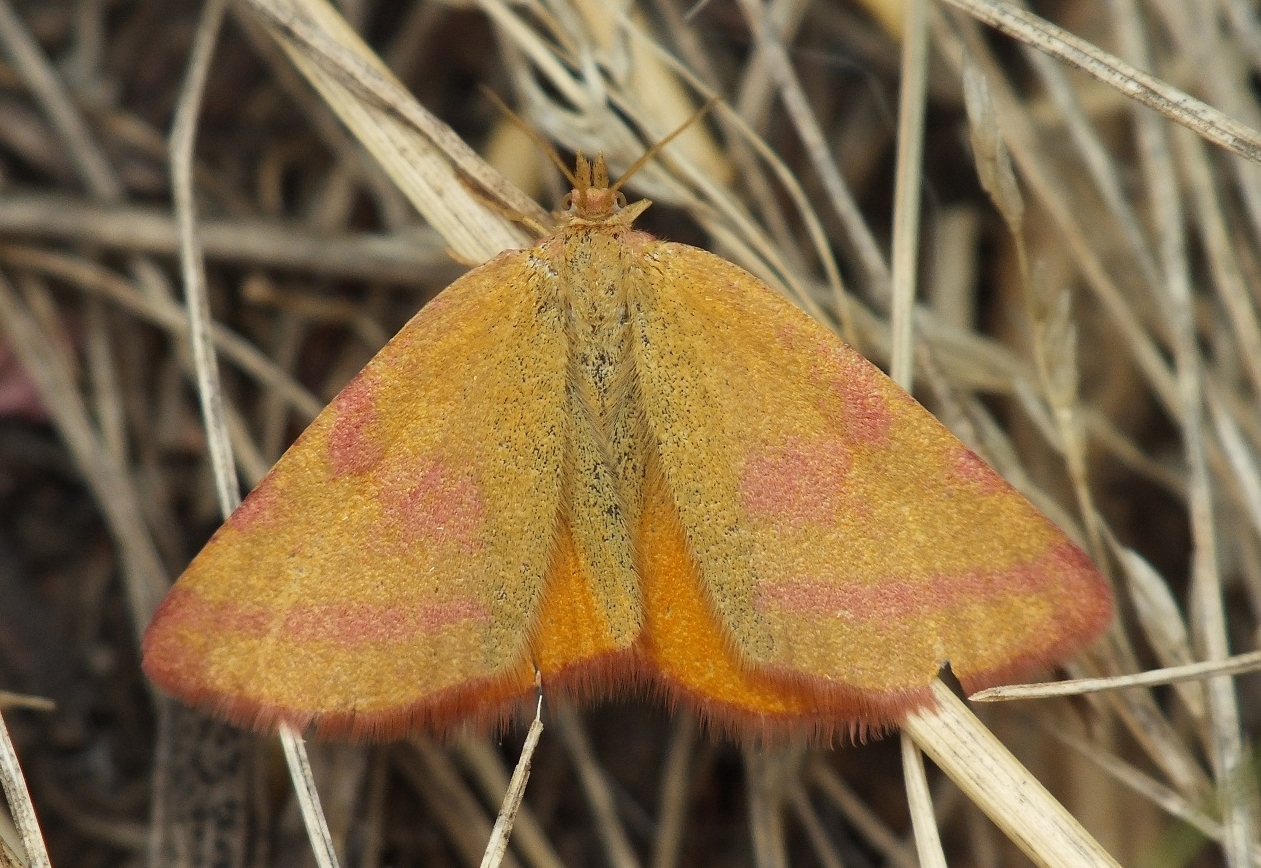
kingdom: Animalia
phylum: Arthropoda
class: Insecta
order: Lepidoptera
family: Geometridae
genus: Lythria
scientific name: Lythria purpuraria
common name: Purple-barred yellow
